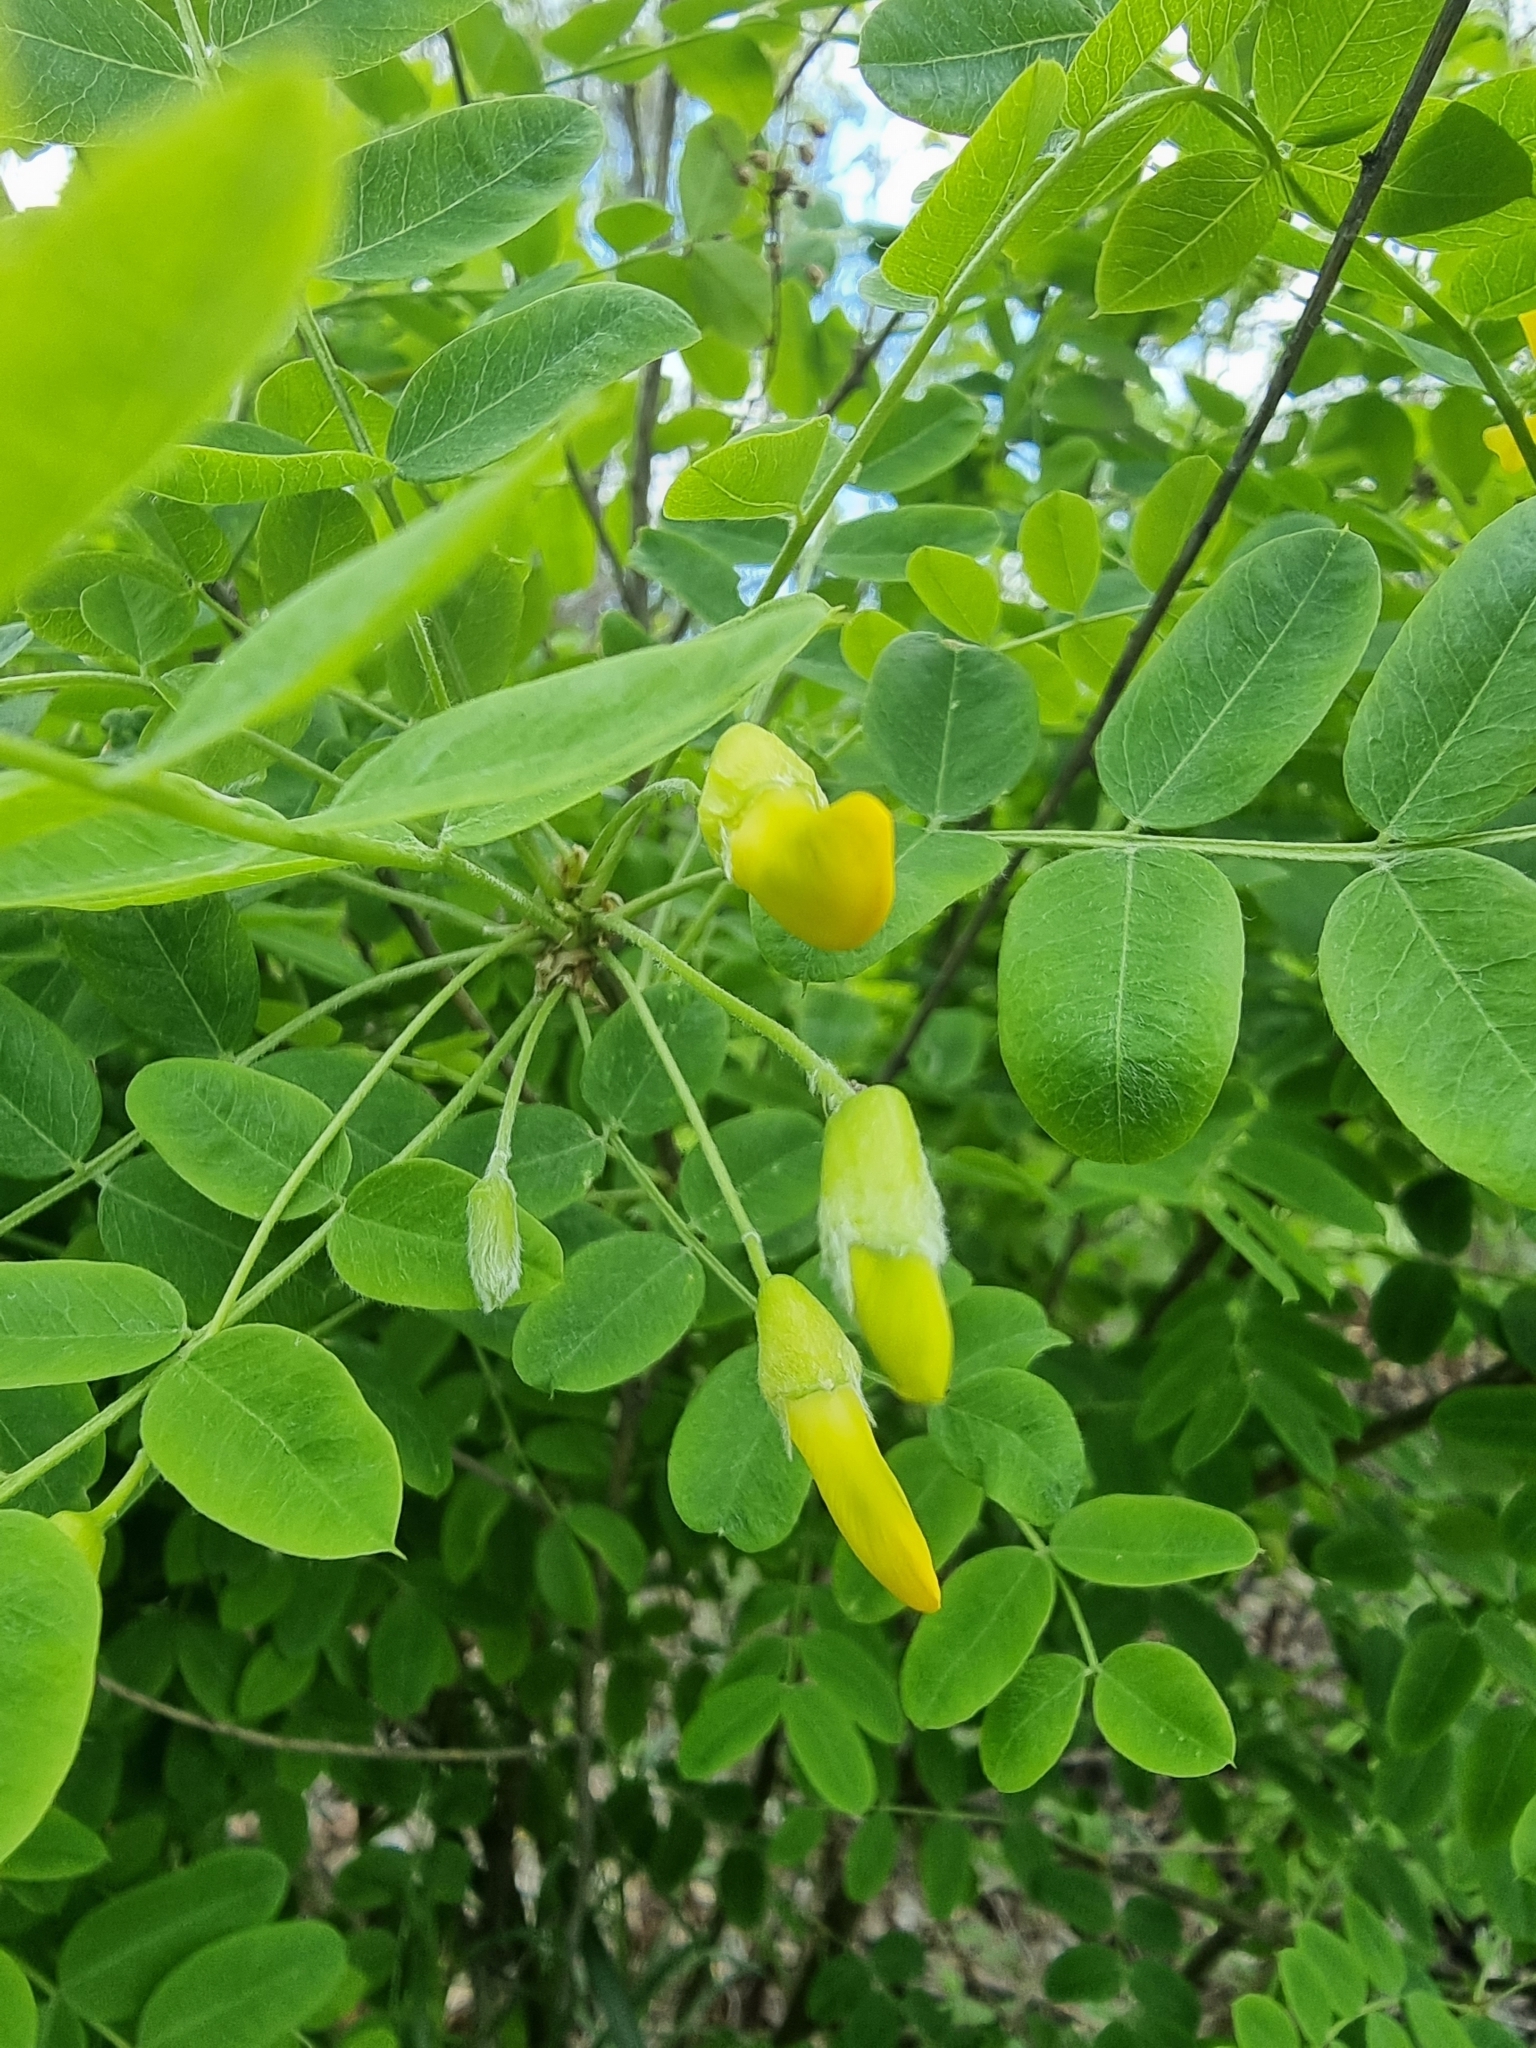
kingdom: Plantae
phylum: Tracheophyta
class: Magnoliopsida
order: Fabales
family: Fabaceae
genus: Caragana
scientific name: Caragana arborescens
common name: Siberian peashrub
